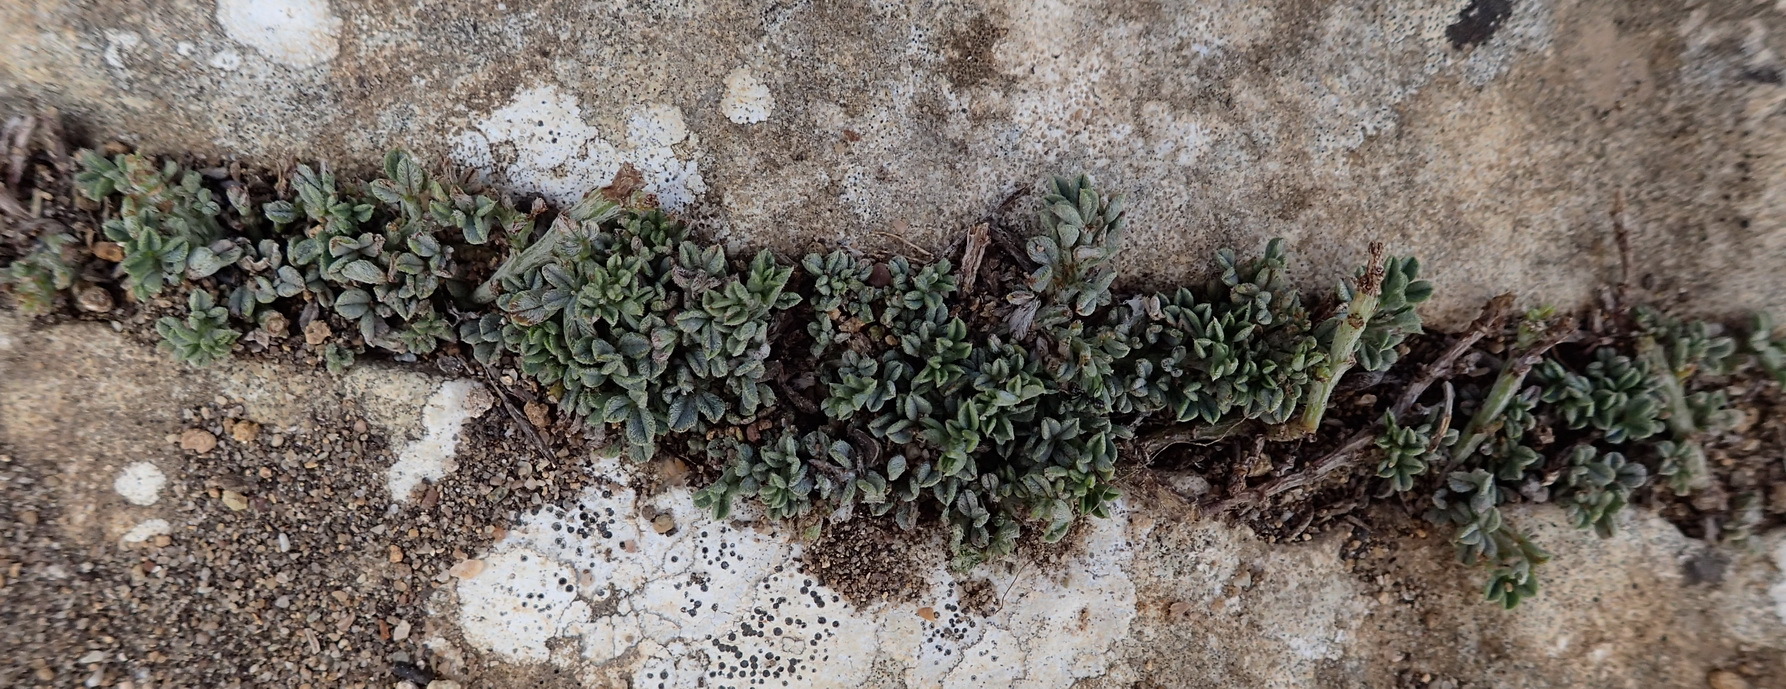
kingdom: Plantae
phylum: Tracheophyta
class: Magnoliopsida
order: Fabales
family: Fabaceae
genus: Indigofera
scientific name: Indigofera
